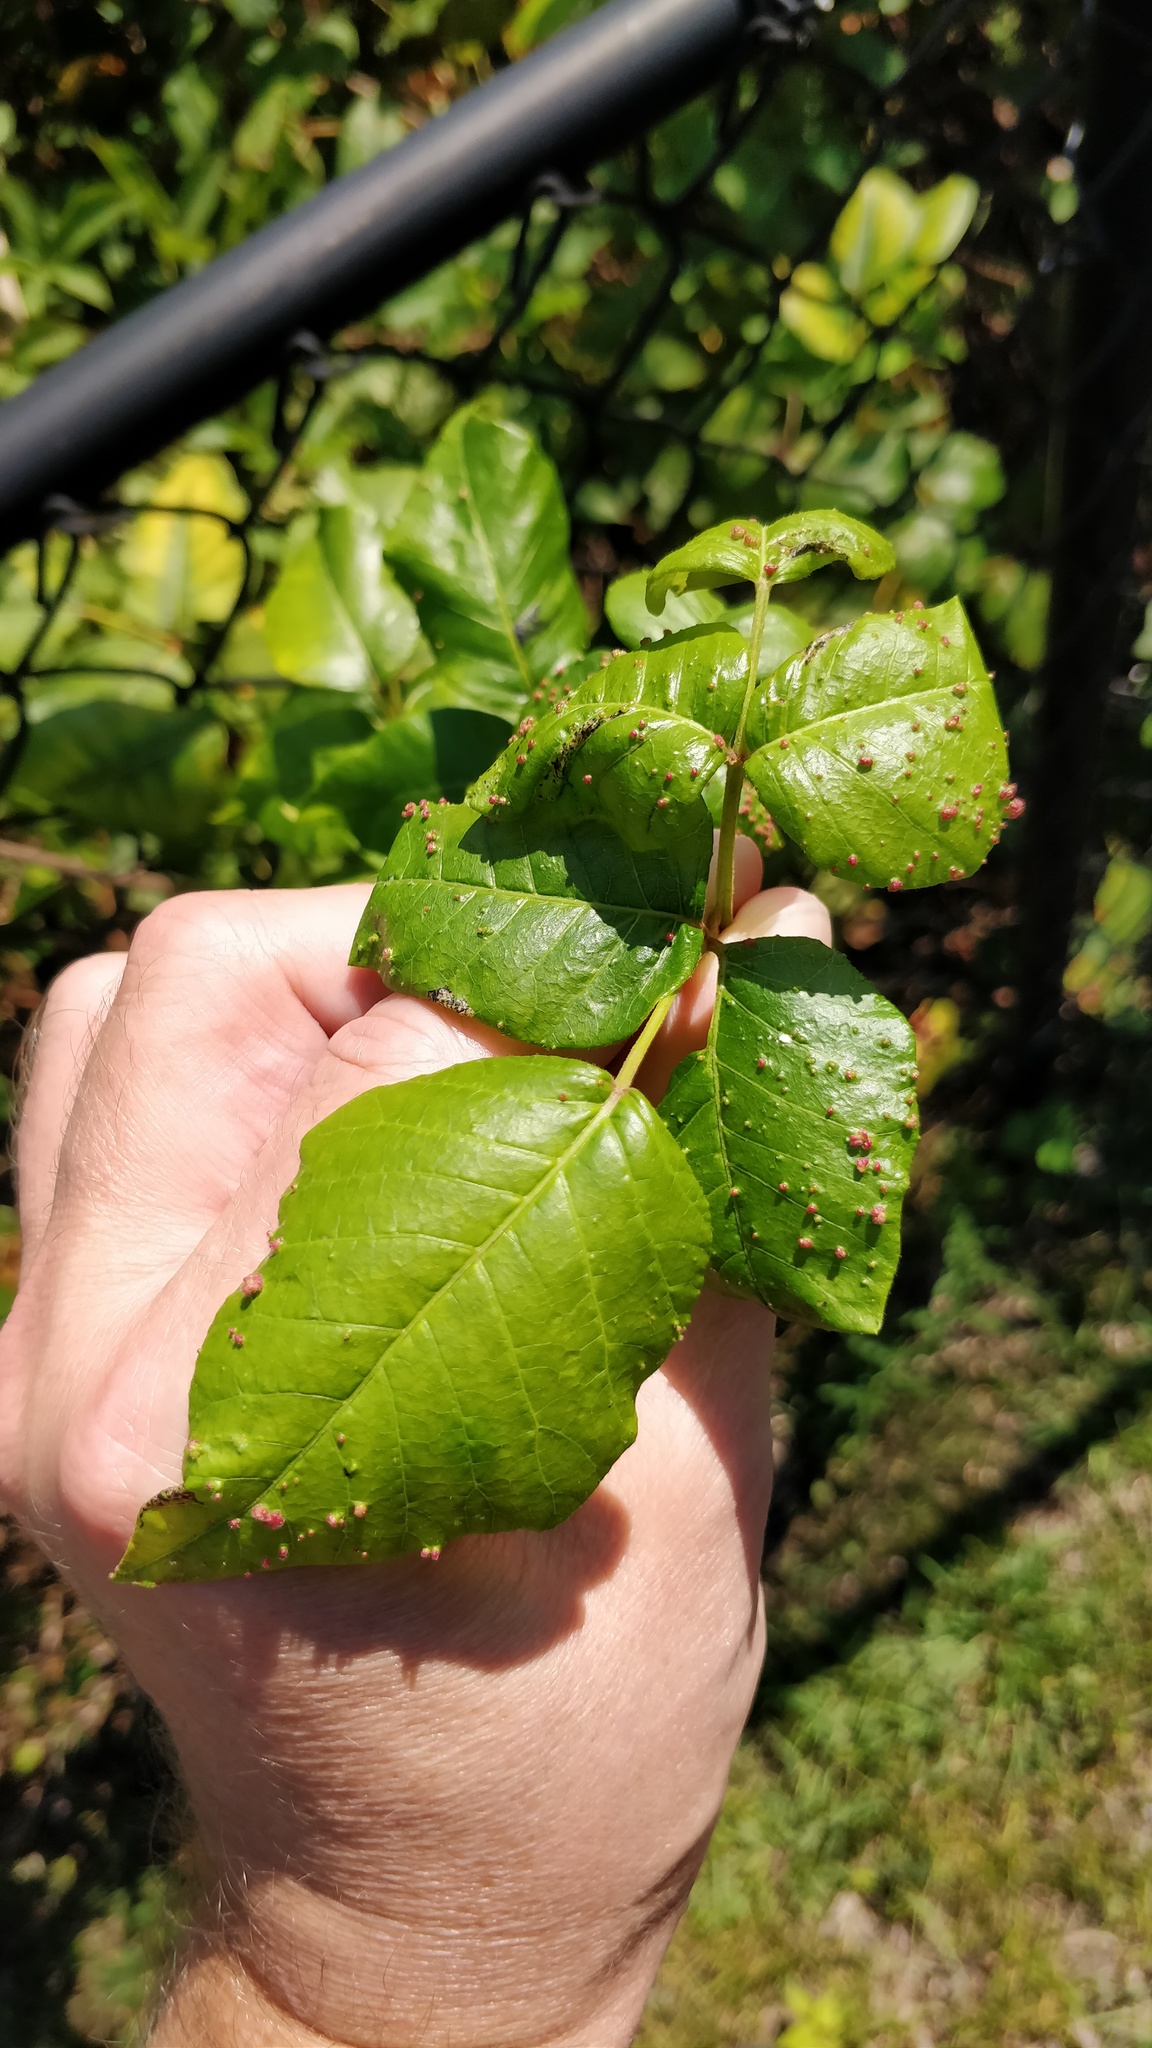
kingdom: Animalia
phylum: Arthropoda
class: Arachnida
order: Trombidiformes
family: Eriophyidae
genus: Aculops
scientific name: Aculops
